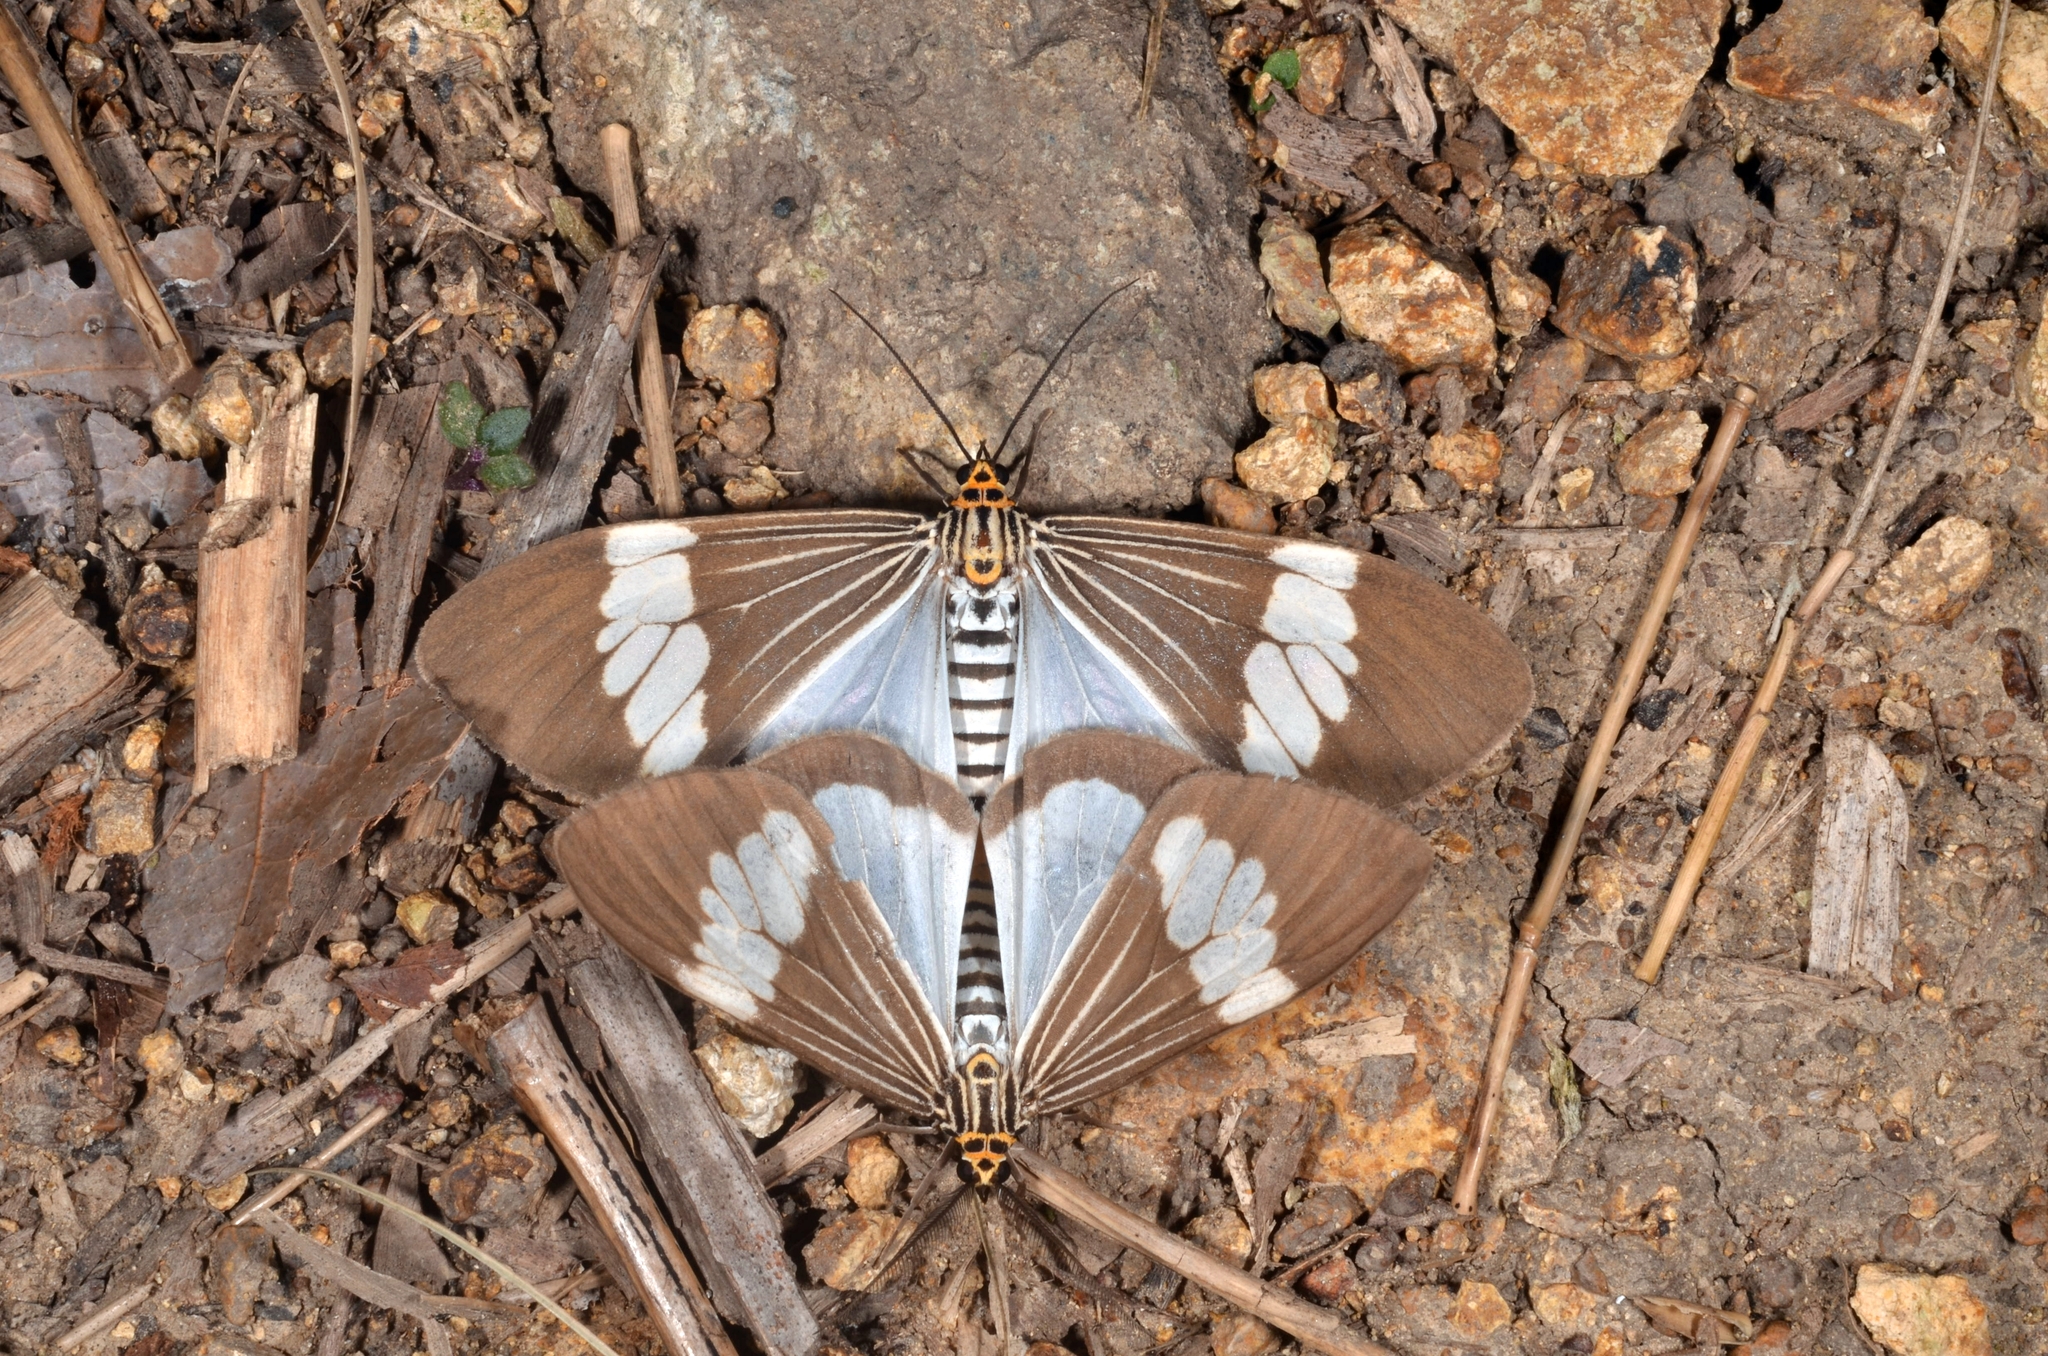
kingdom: Animalia
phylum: Arthropoda
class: Insecta
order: Lepidoptera
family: Erebidae
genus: Nyctemera
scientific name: Nyctemera baulus
